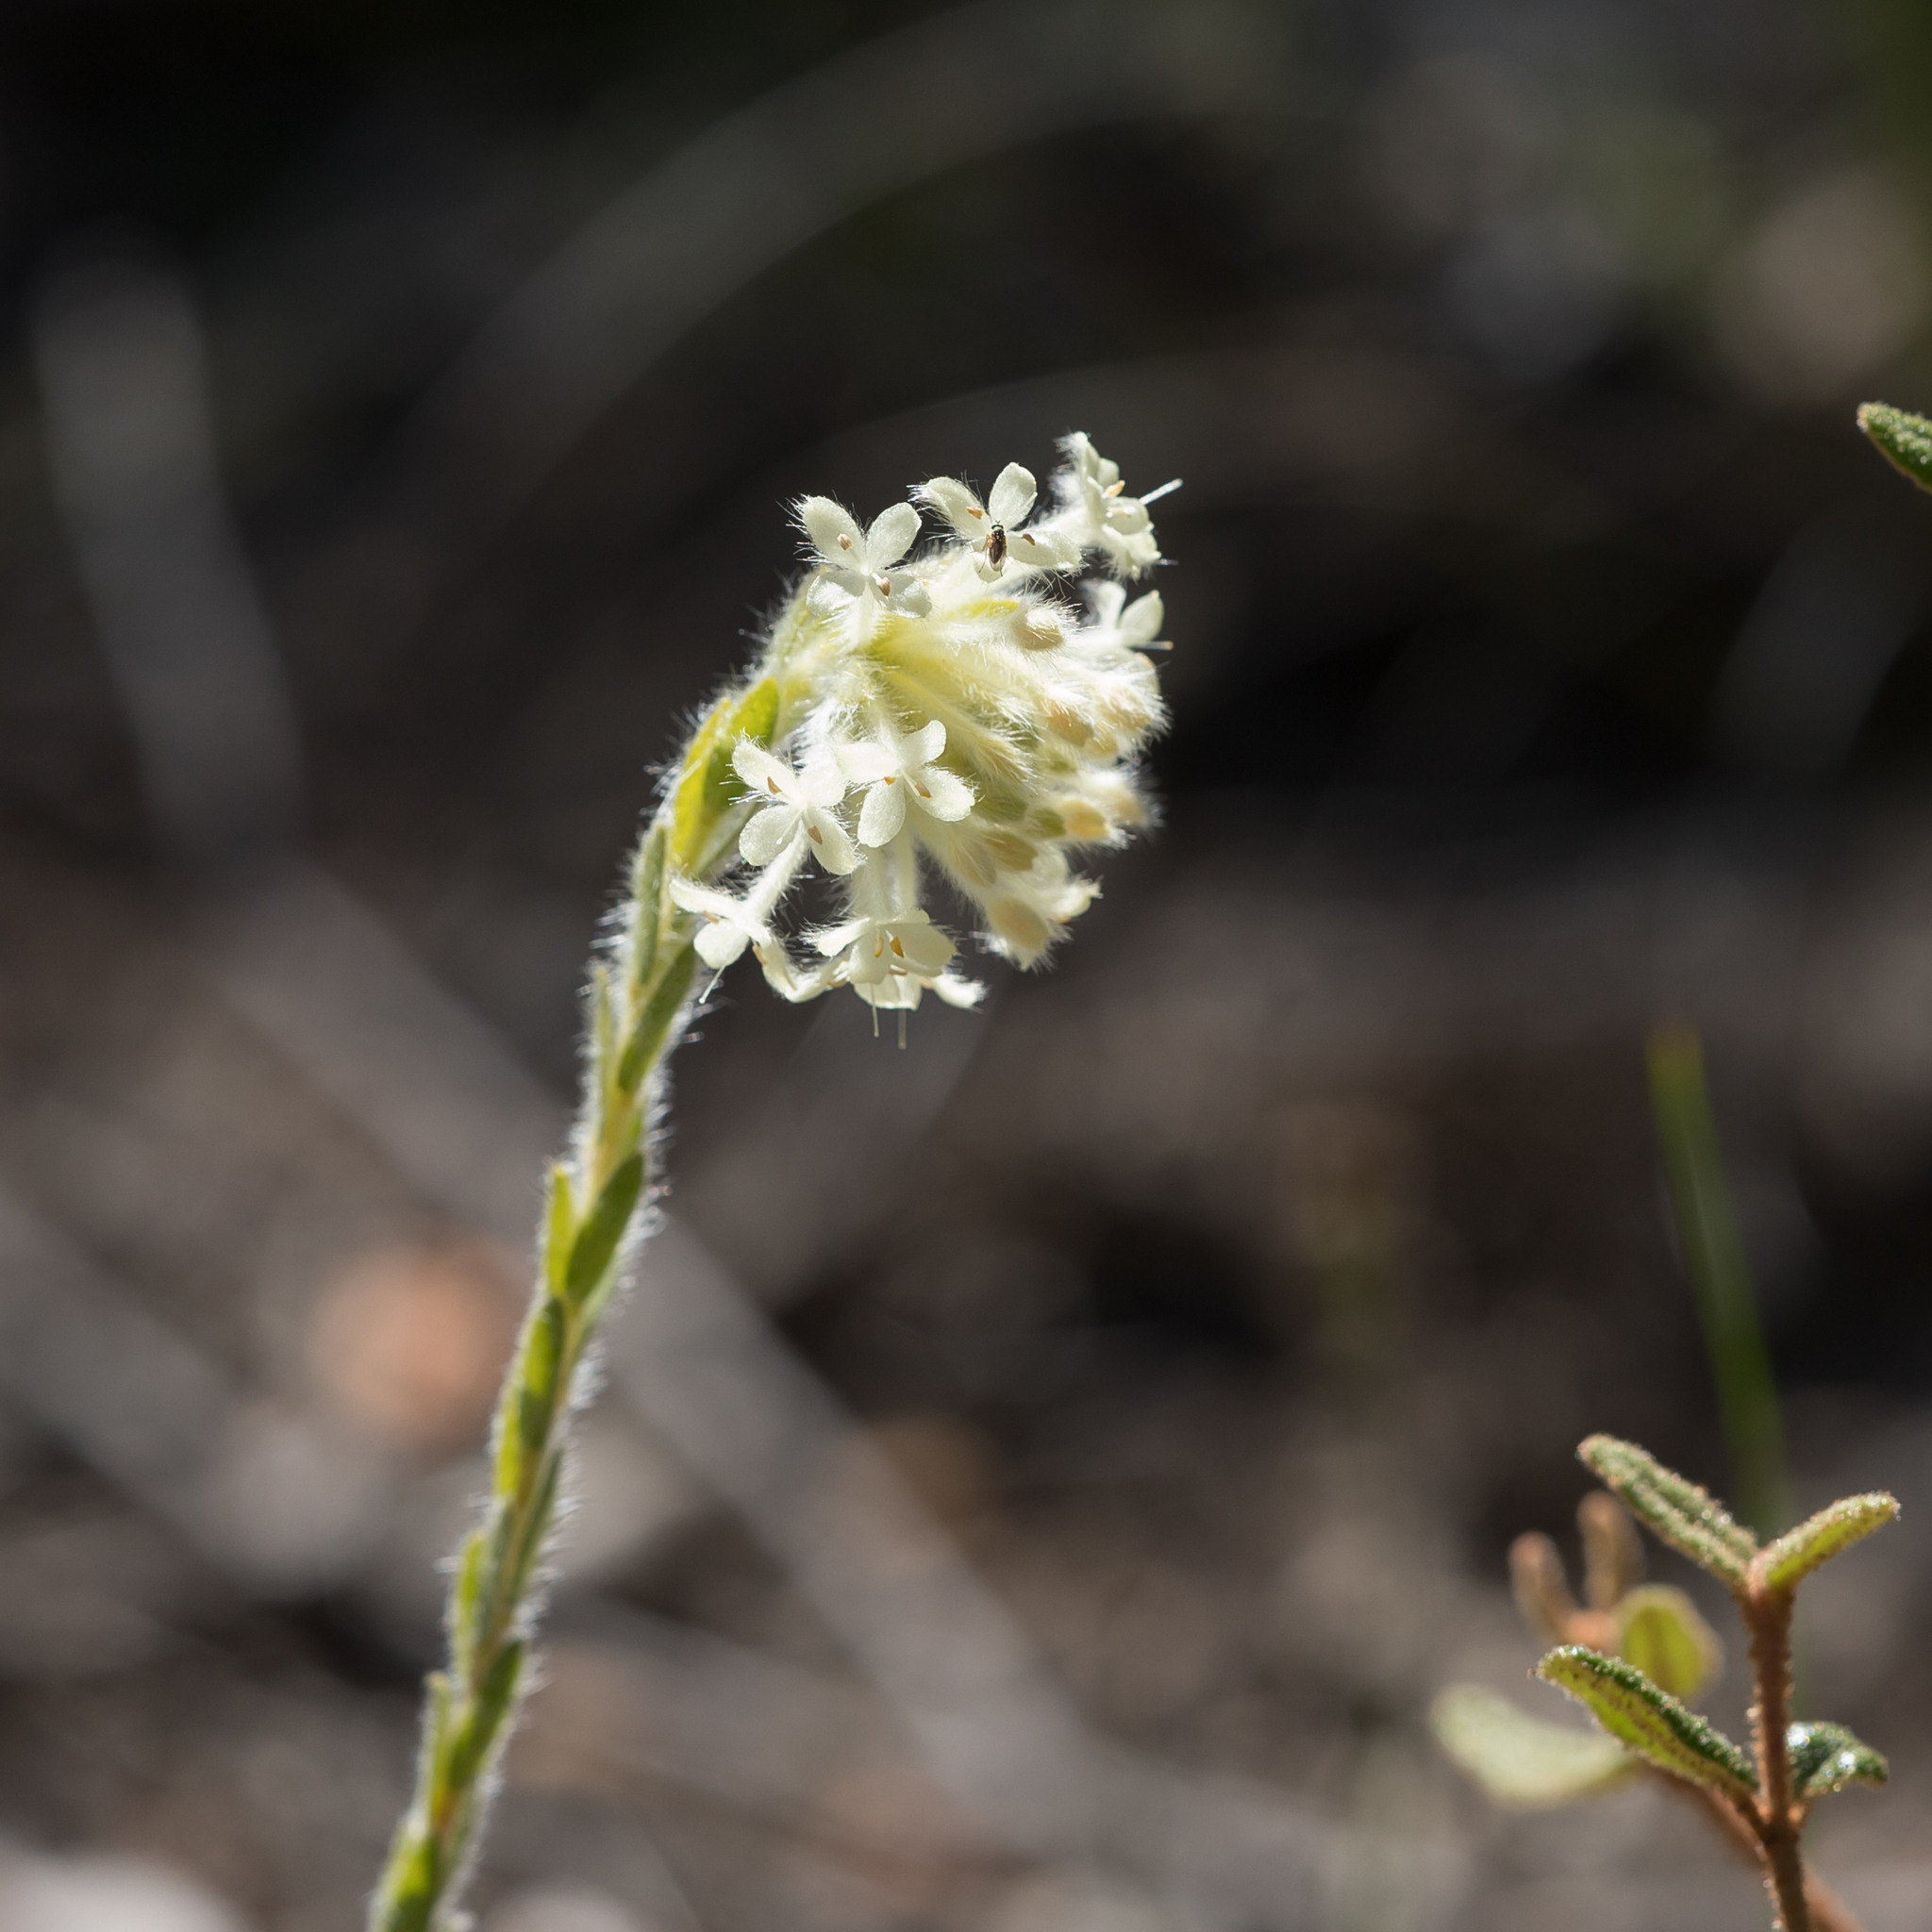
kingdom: Plantae
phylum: Tracheophyta
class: Magnoliopsida
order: Malvales
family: Thymelaeaceae
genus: Pimelea
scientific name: Pimelea octophylla
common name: Woolly riceflower
